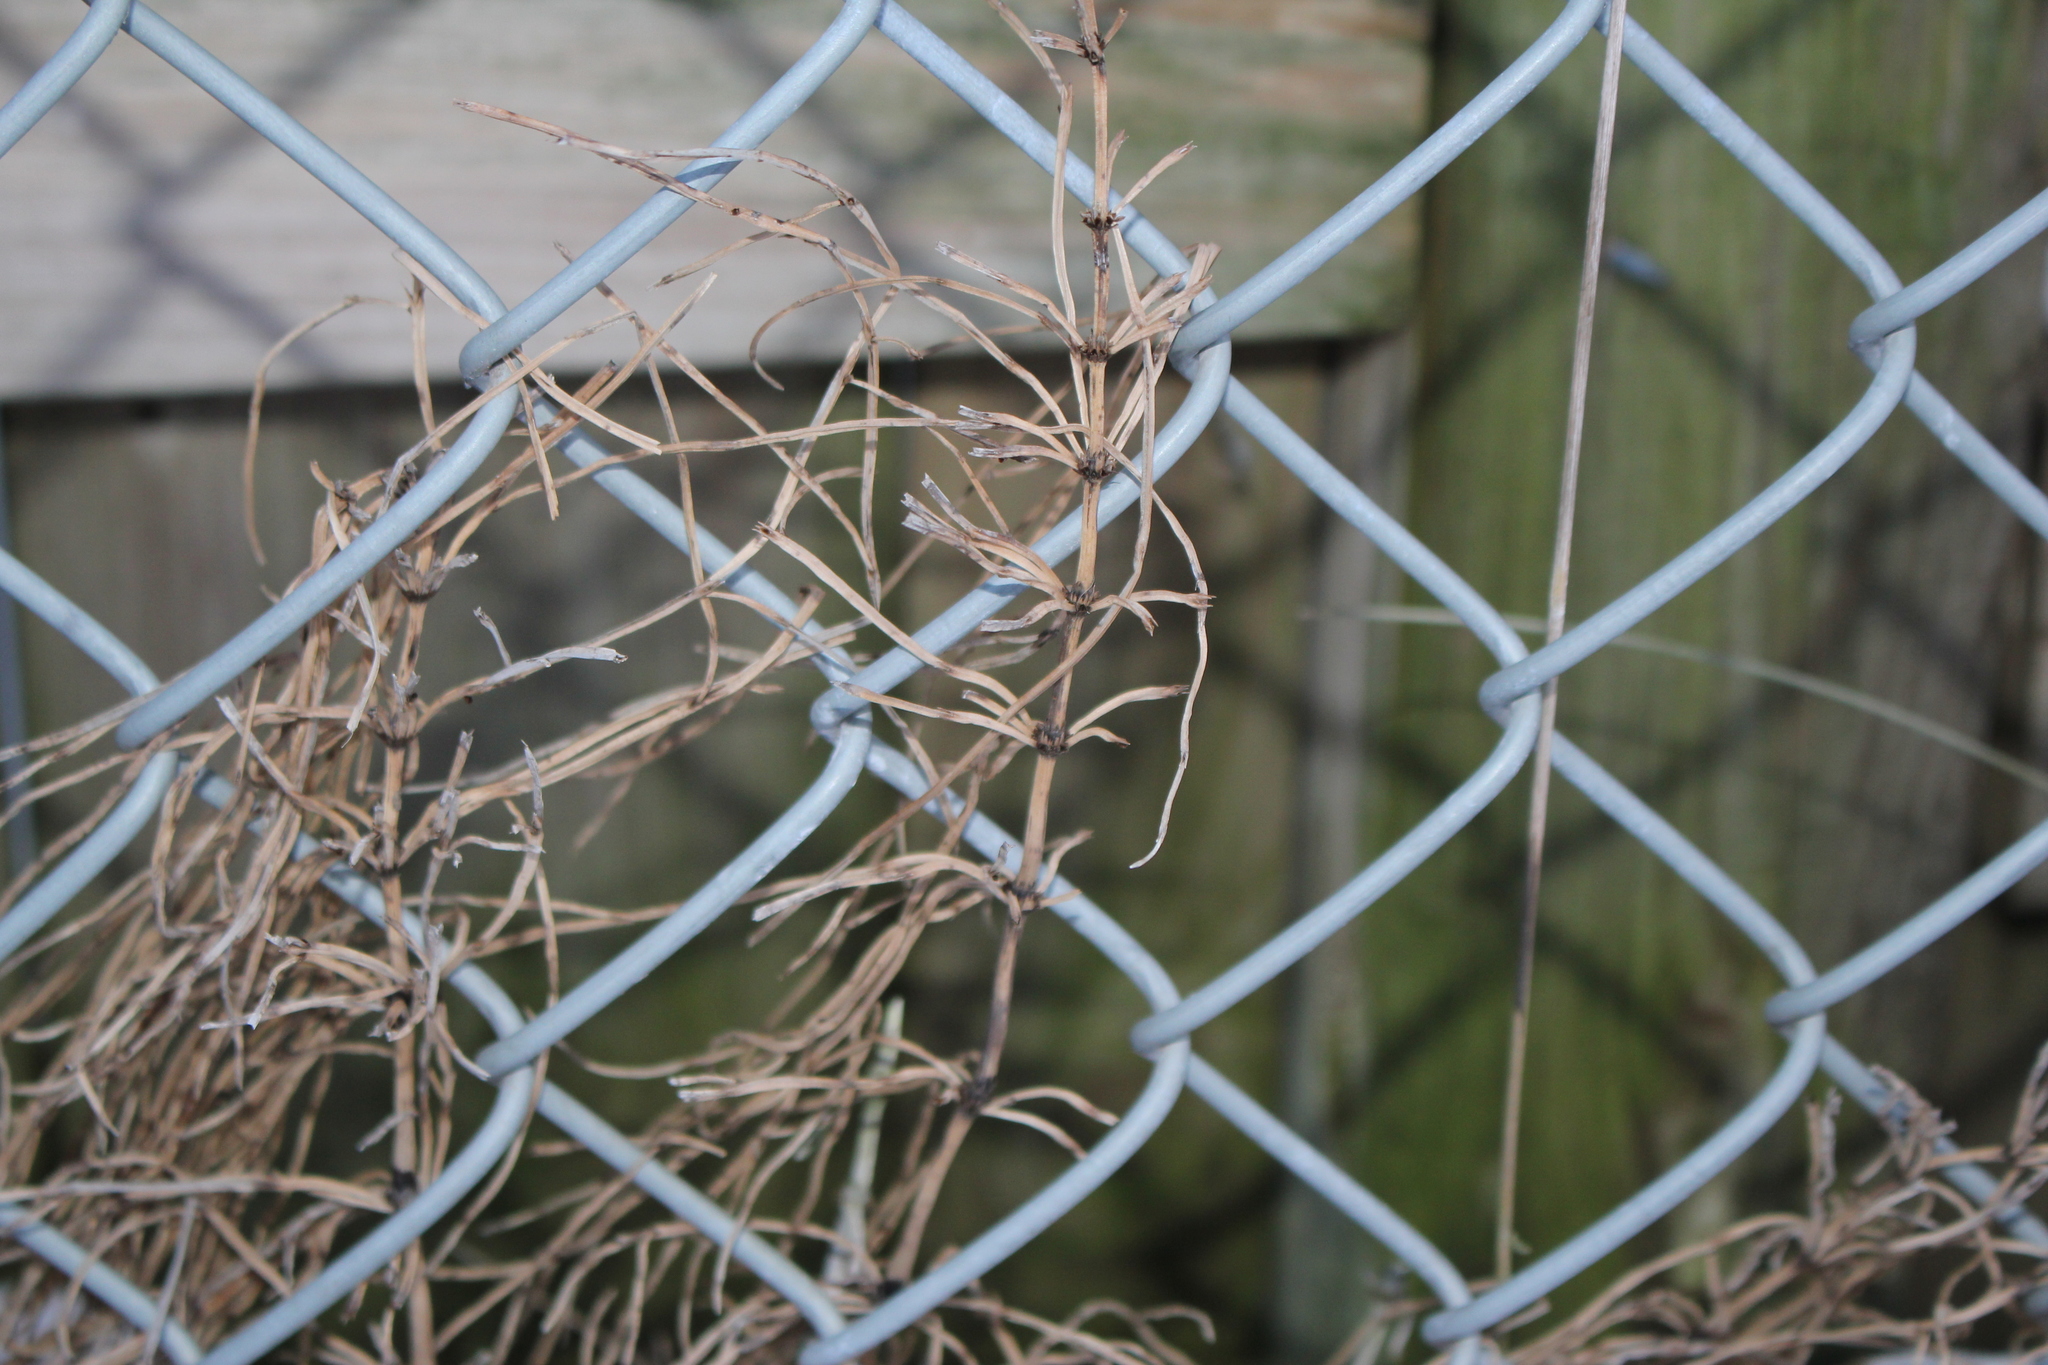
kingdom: Plantae
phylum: Tracheophyta
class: Polypodiopsida
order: Equisetales
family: Equisetaceae
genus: Equisetum
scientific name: Equisetum arvense
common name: Field horsetail
